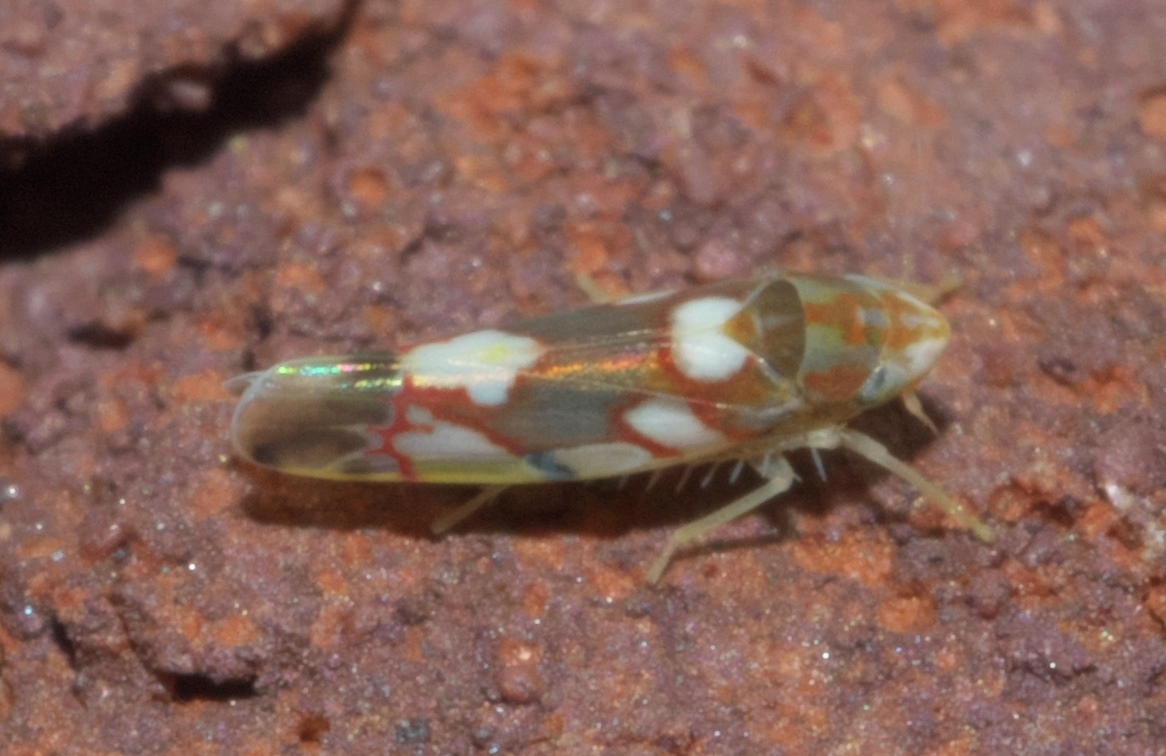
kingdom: Animalia
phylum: Arthropoda
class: Insecta
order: Hemiptera
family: Cicadellidae
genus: Erythroneura
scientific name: Erythroneura elegans
